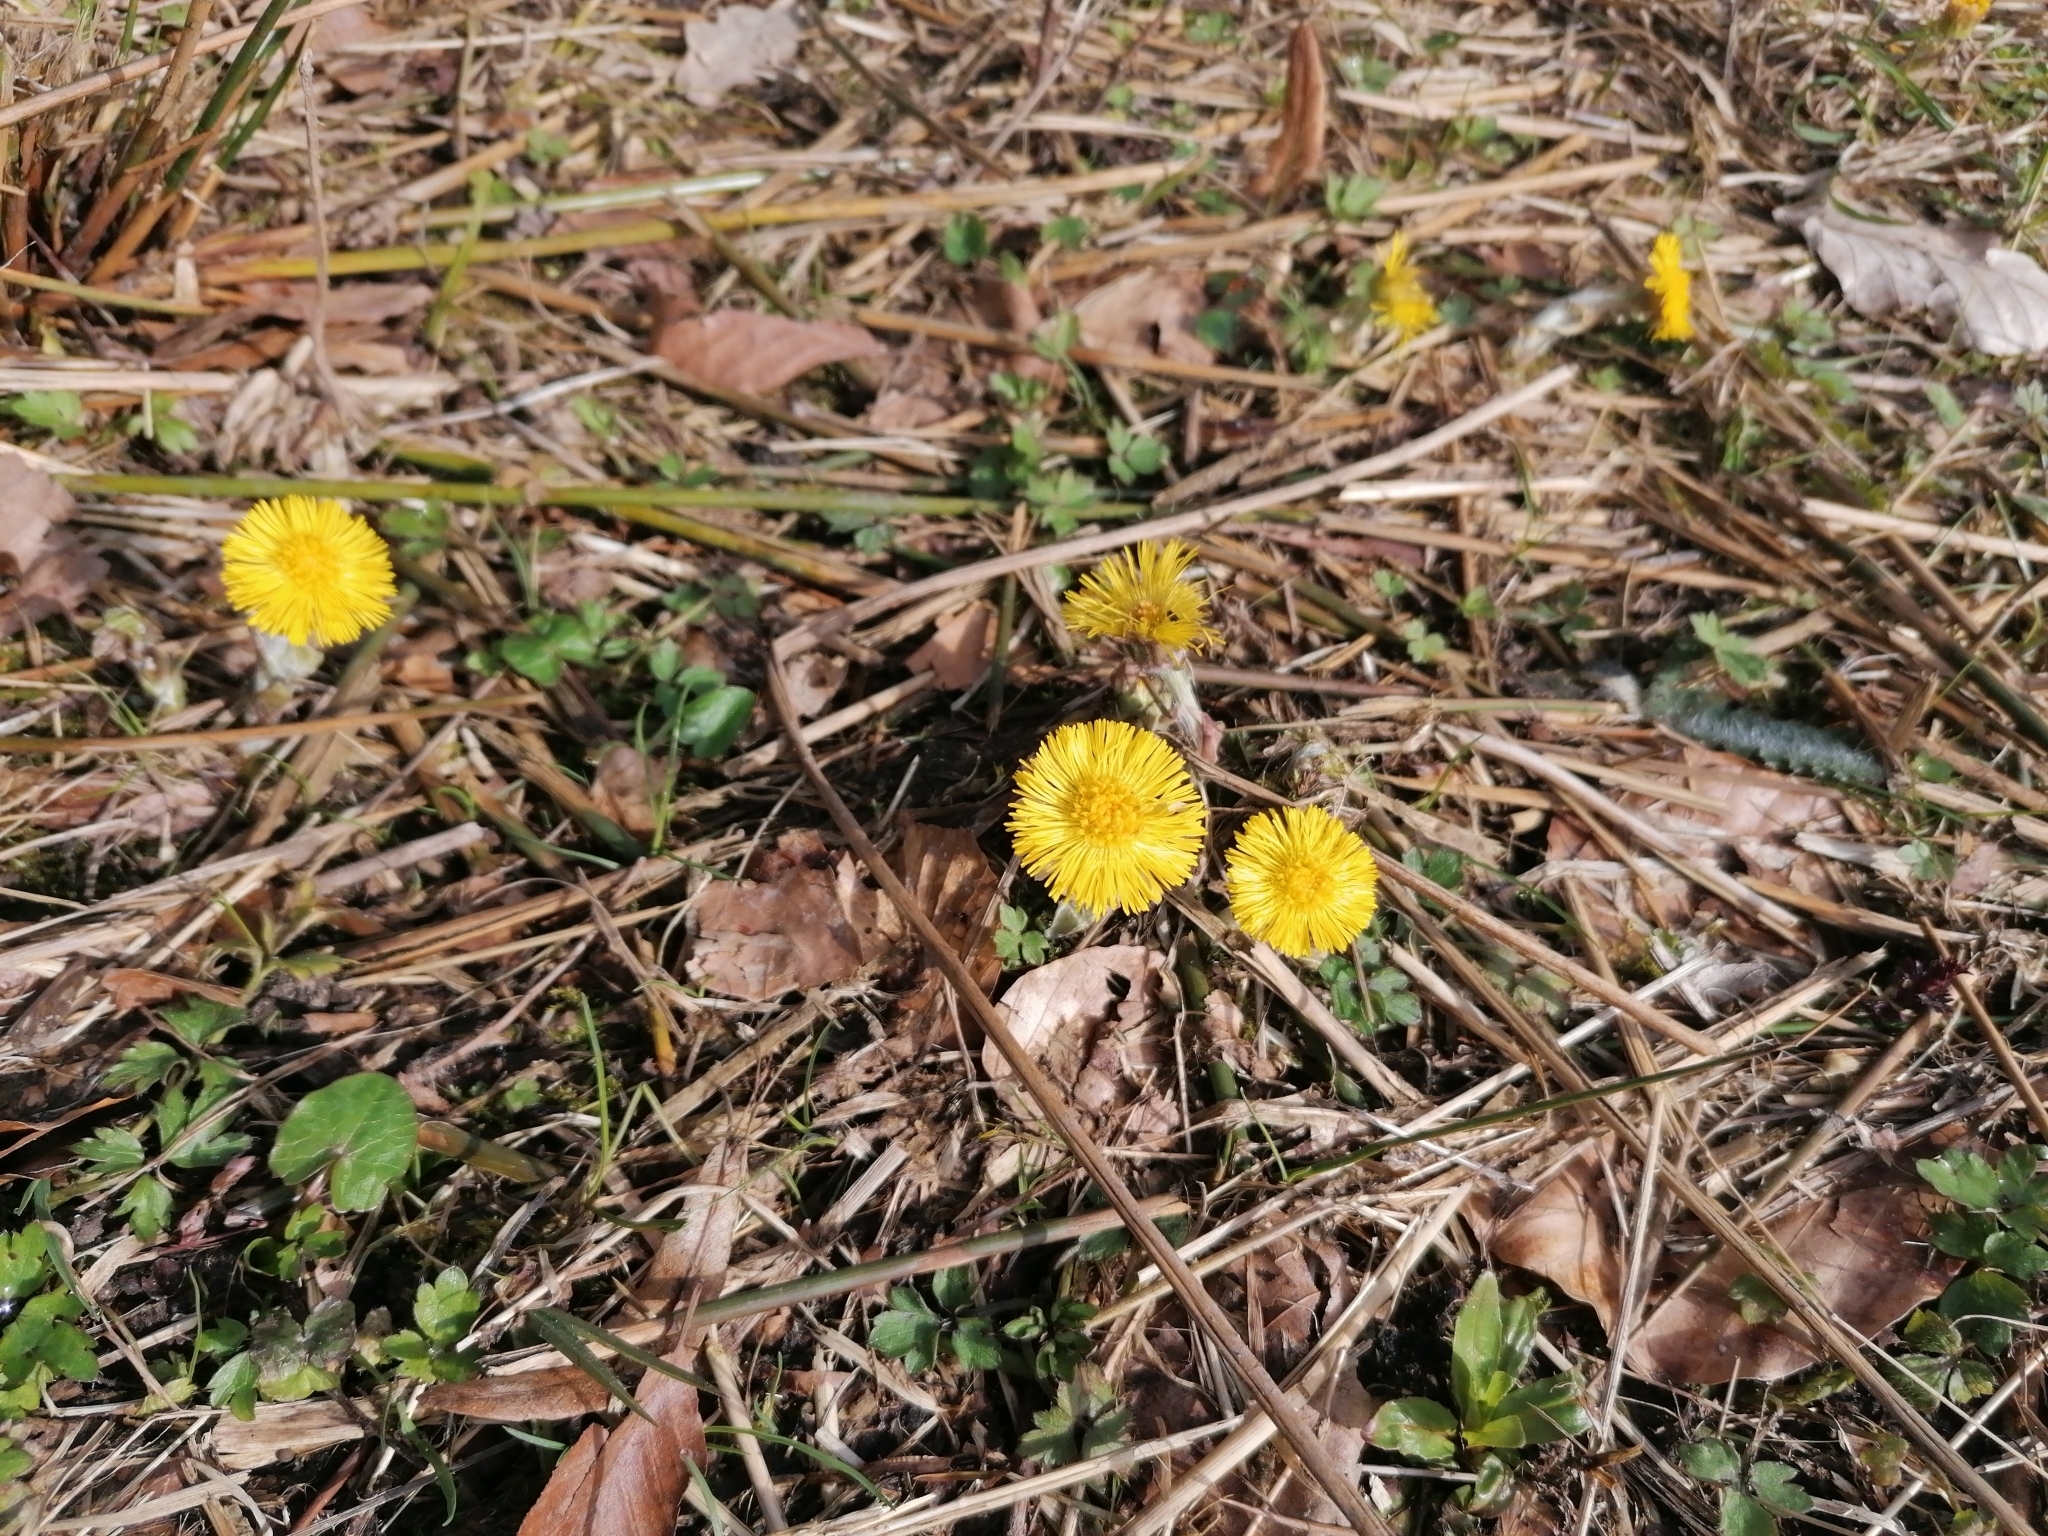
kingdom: Plantae
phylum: Tracheophyta
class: Magnoliopsida
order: Asterales
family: Asteraceae
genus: Tussilago
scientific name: Tussilago farfara
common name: Coltsfoot
